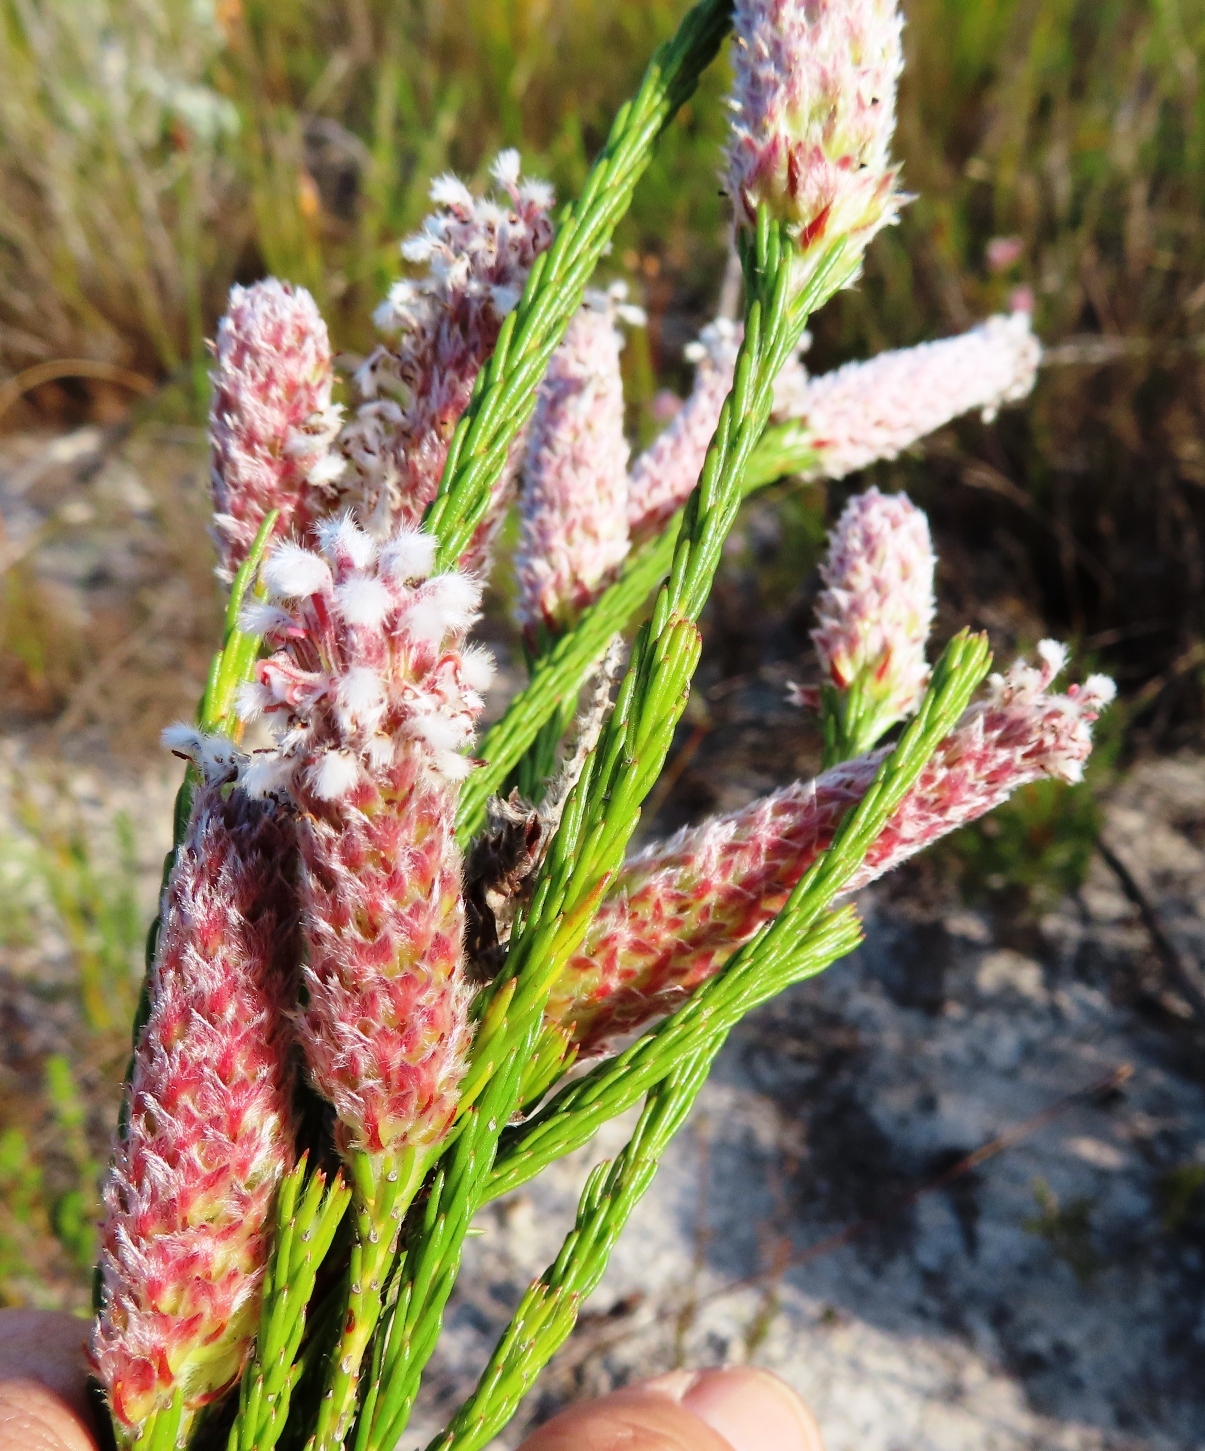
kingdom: Plantae
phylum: Tracheophyta
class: Magnoliopsida
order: Proteales
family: Proteaceae
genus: Spatalla
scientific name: Spatalla ericoides
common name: Erica-leaf spoon
